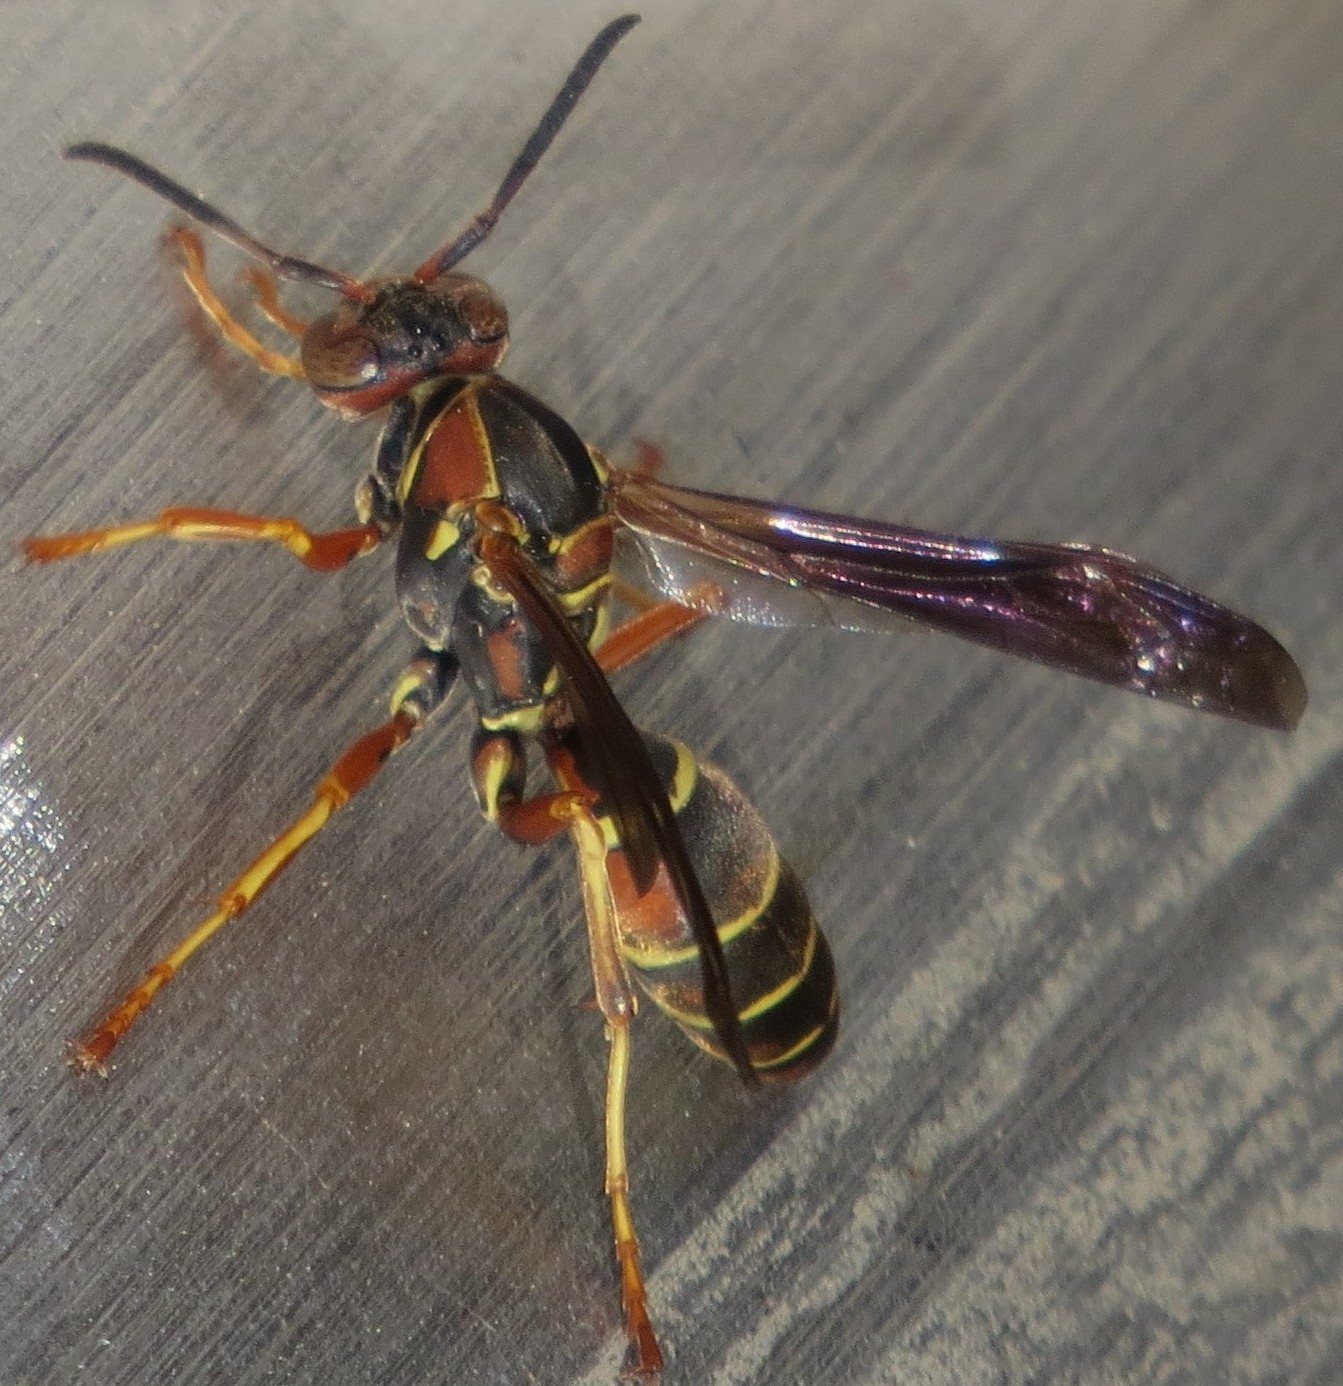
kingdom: Animalia
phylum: Arthropoda
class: Insecta
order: Hymenoptera
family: Eumenidae
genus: Polistes
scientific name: Polistes fuscatus
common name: Dark paper wasp
